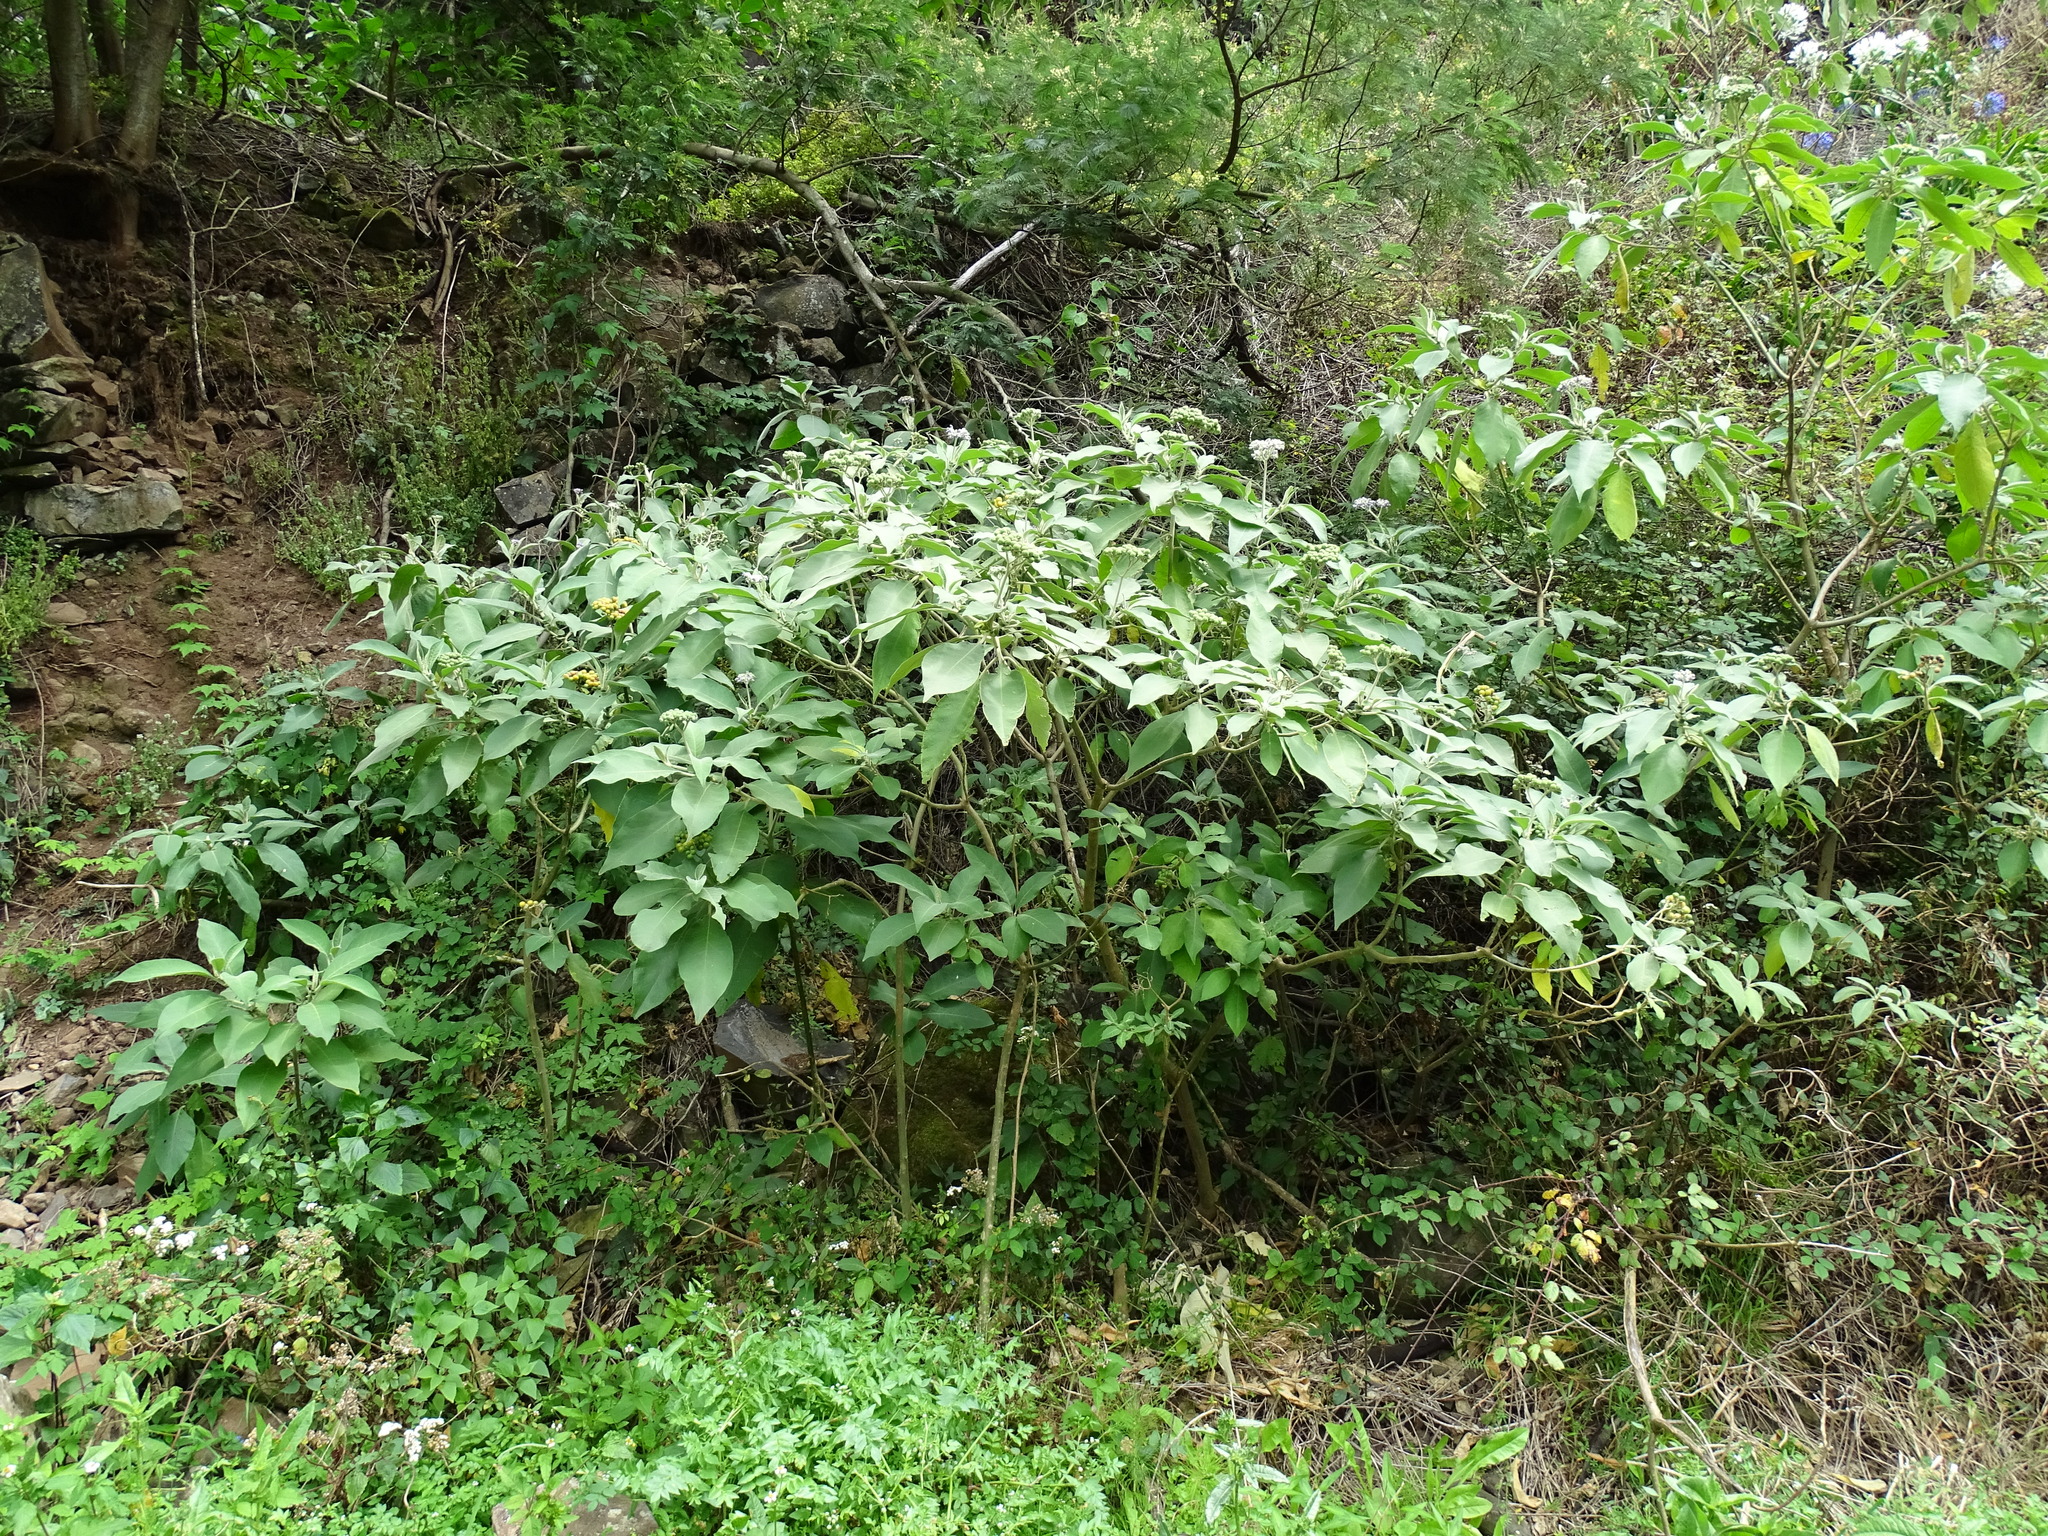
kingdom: Plantae
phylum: Tracheophyta
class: Magnoliopsida
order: Solanales
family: Solanaceae
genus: Solanum
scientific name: Solanum mauritianum
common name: Earleaf nightshade
